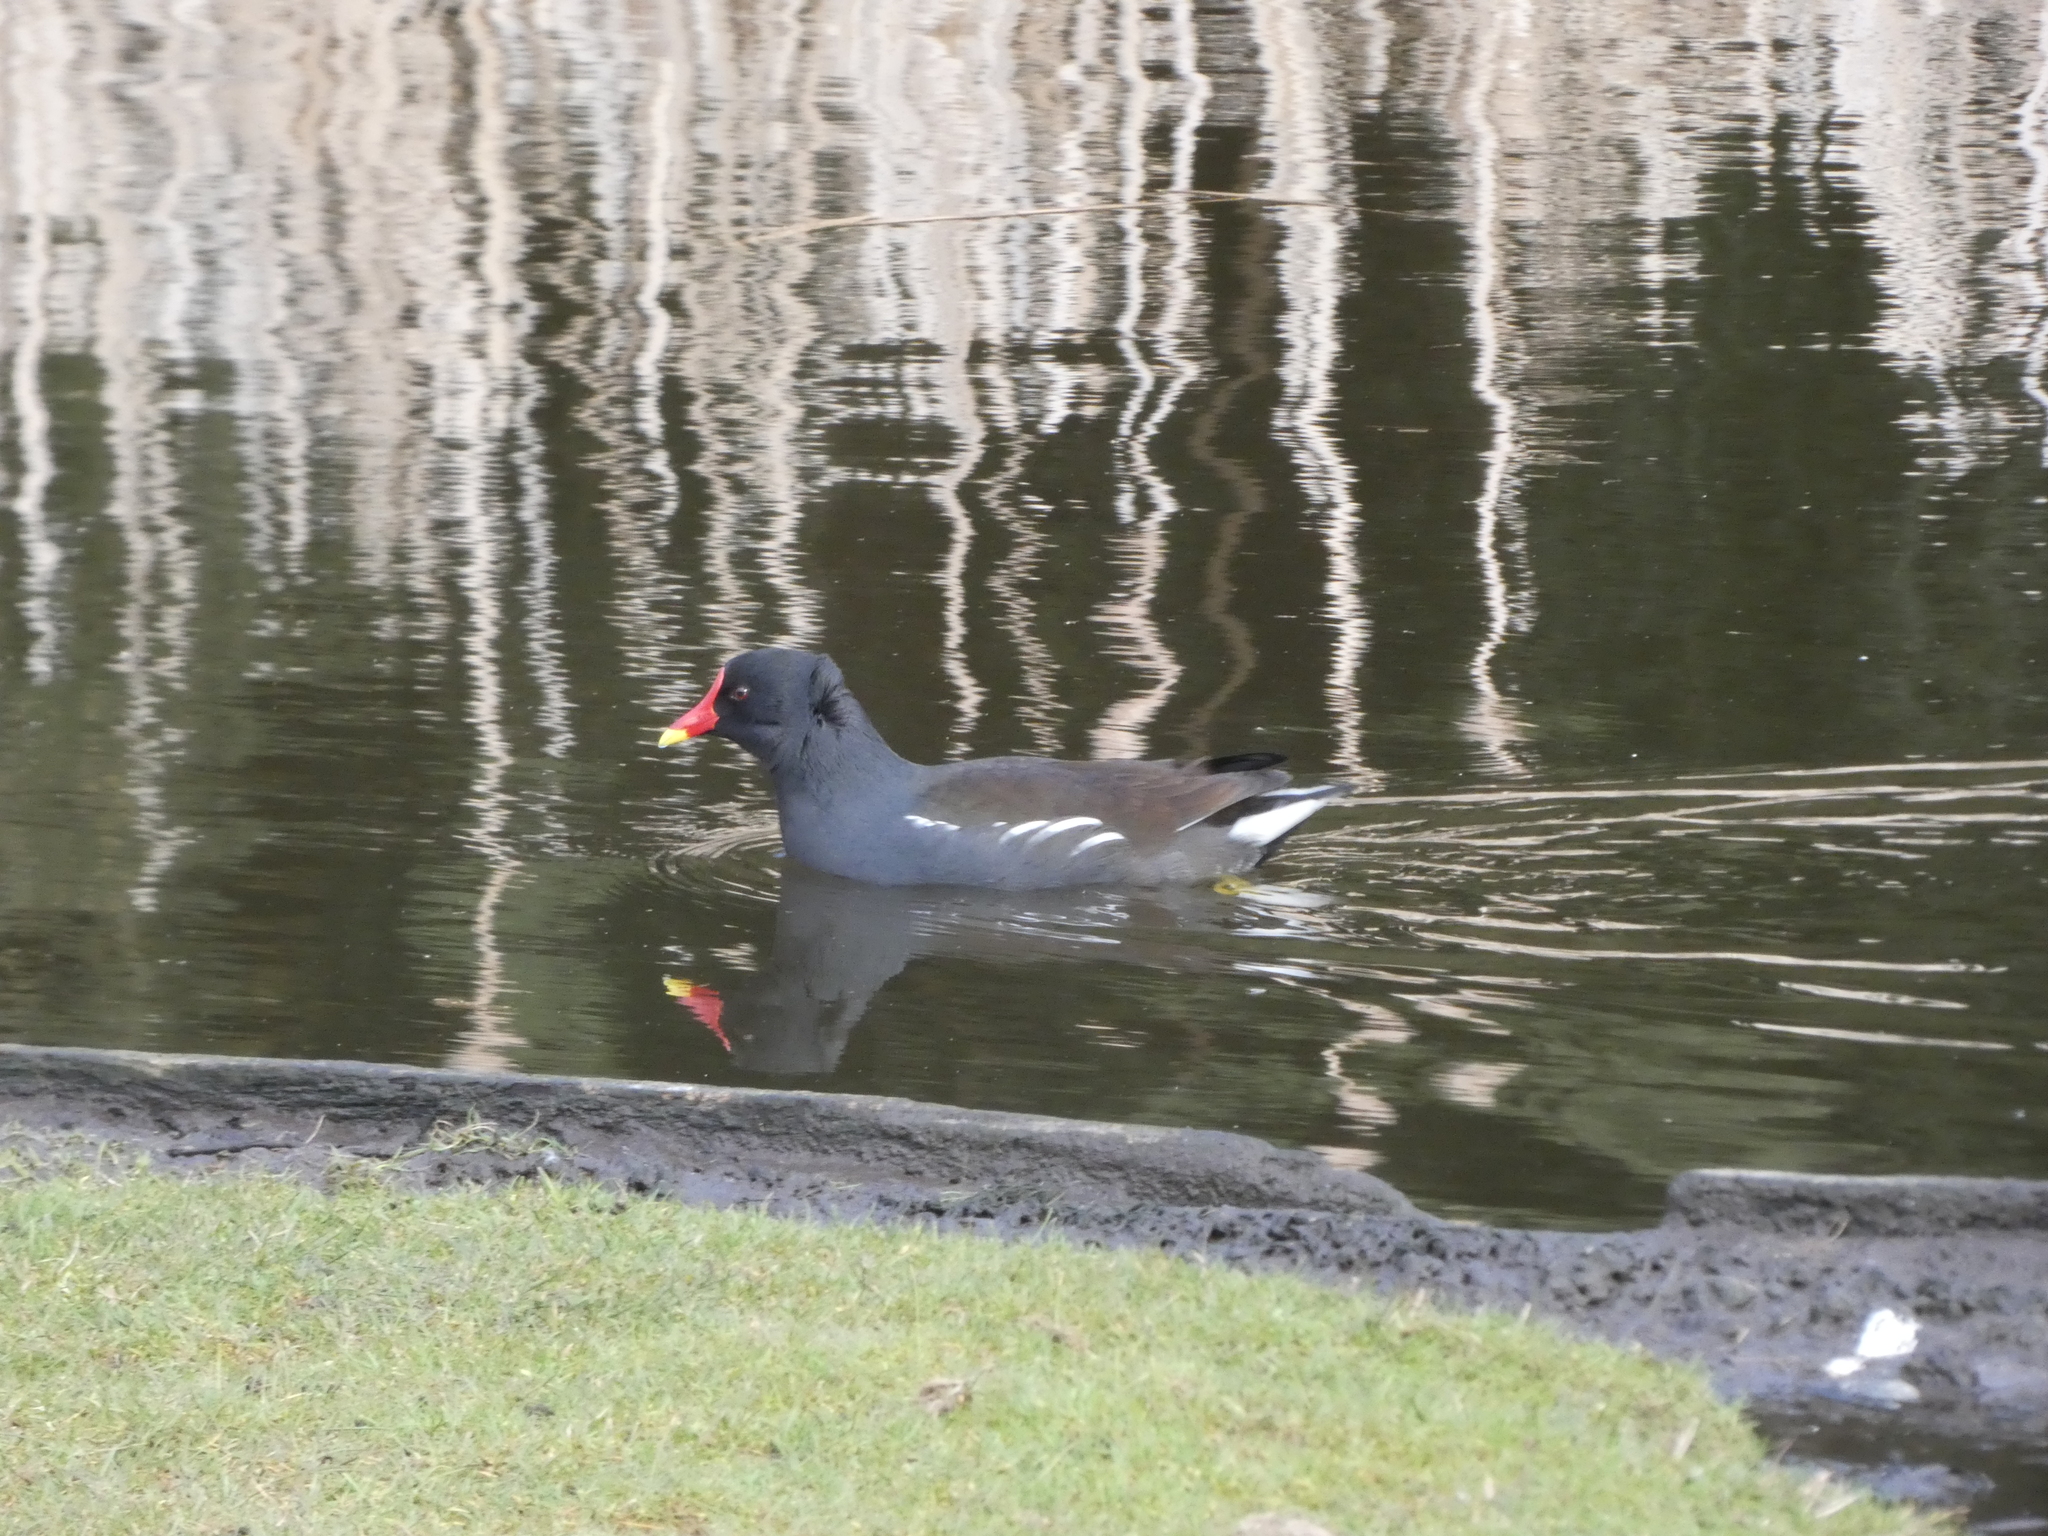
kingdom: Animalia
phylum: Chordata
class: Aves
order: Gruiformes
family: Rallidae
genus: Gallinula
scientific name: Gallinula chloropus
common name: Common moorhen
